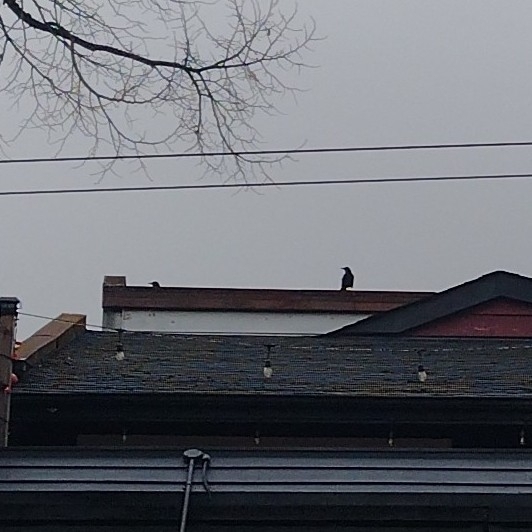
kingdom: Animalia
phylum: Chordata
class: Aves
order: Passeriformes
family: Corvidae
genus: Corvus
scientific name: Corvus brachyrhynchos
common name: American crow
